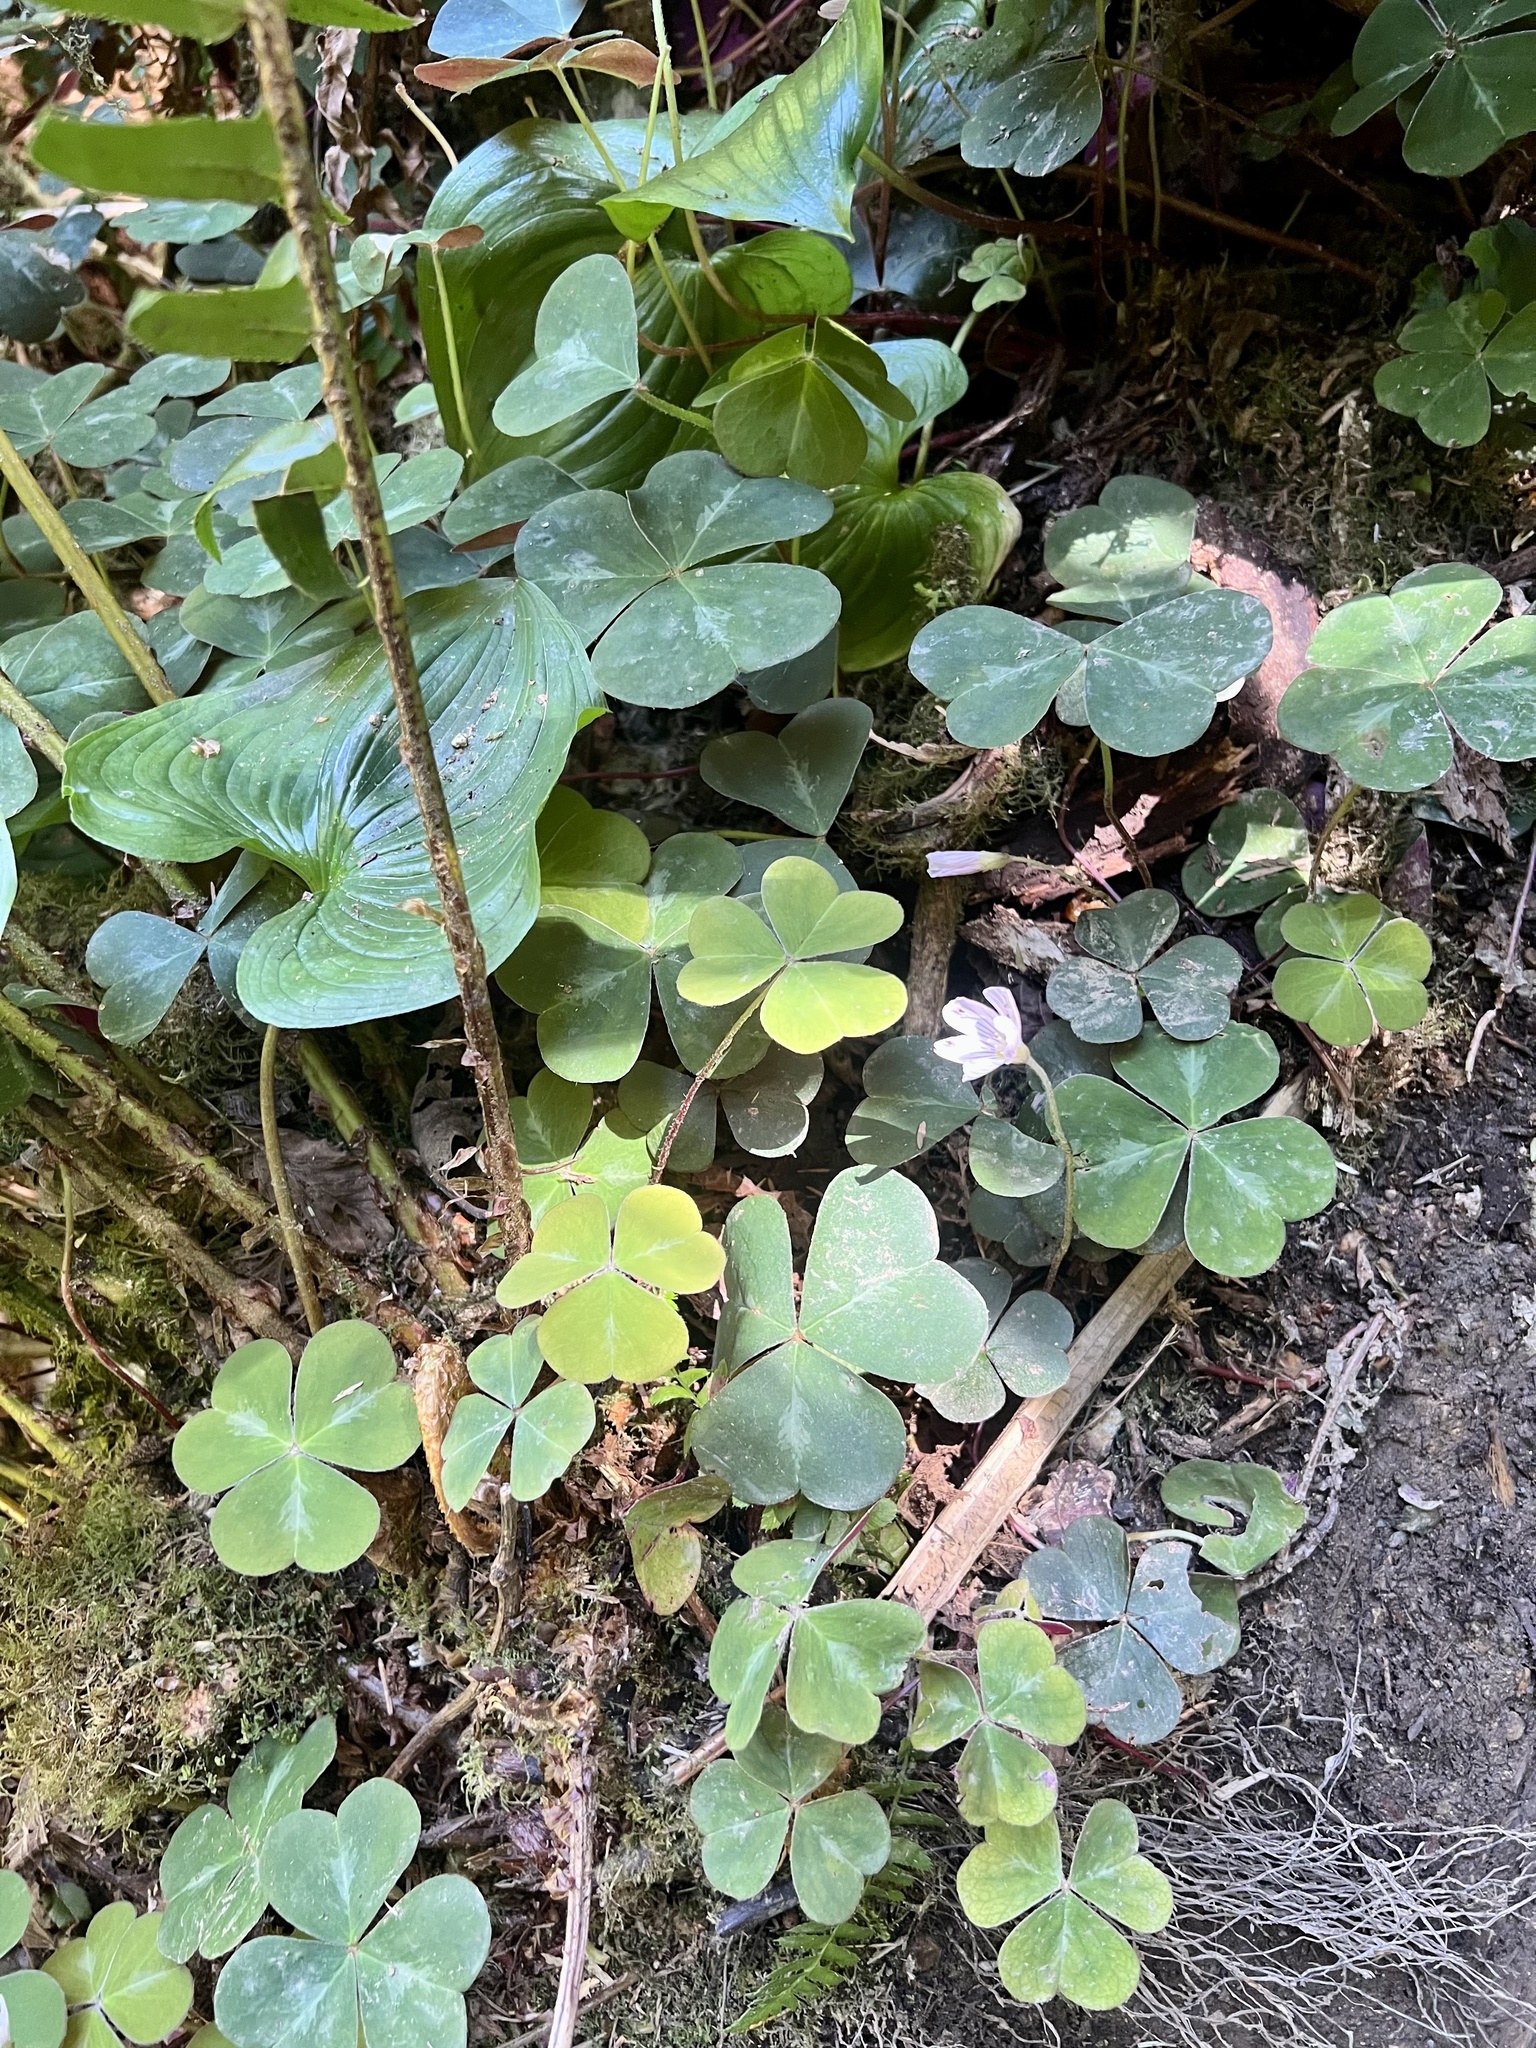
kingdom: Plantae
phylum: Tracheophyta
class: Magnoliopsida
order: Oxalidales
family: Oxalidaceae
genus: Oxalis
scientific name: Oxalis oregana
